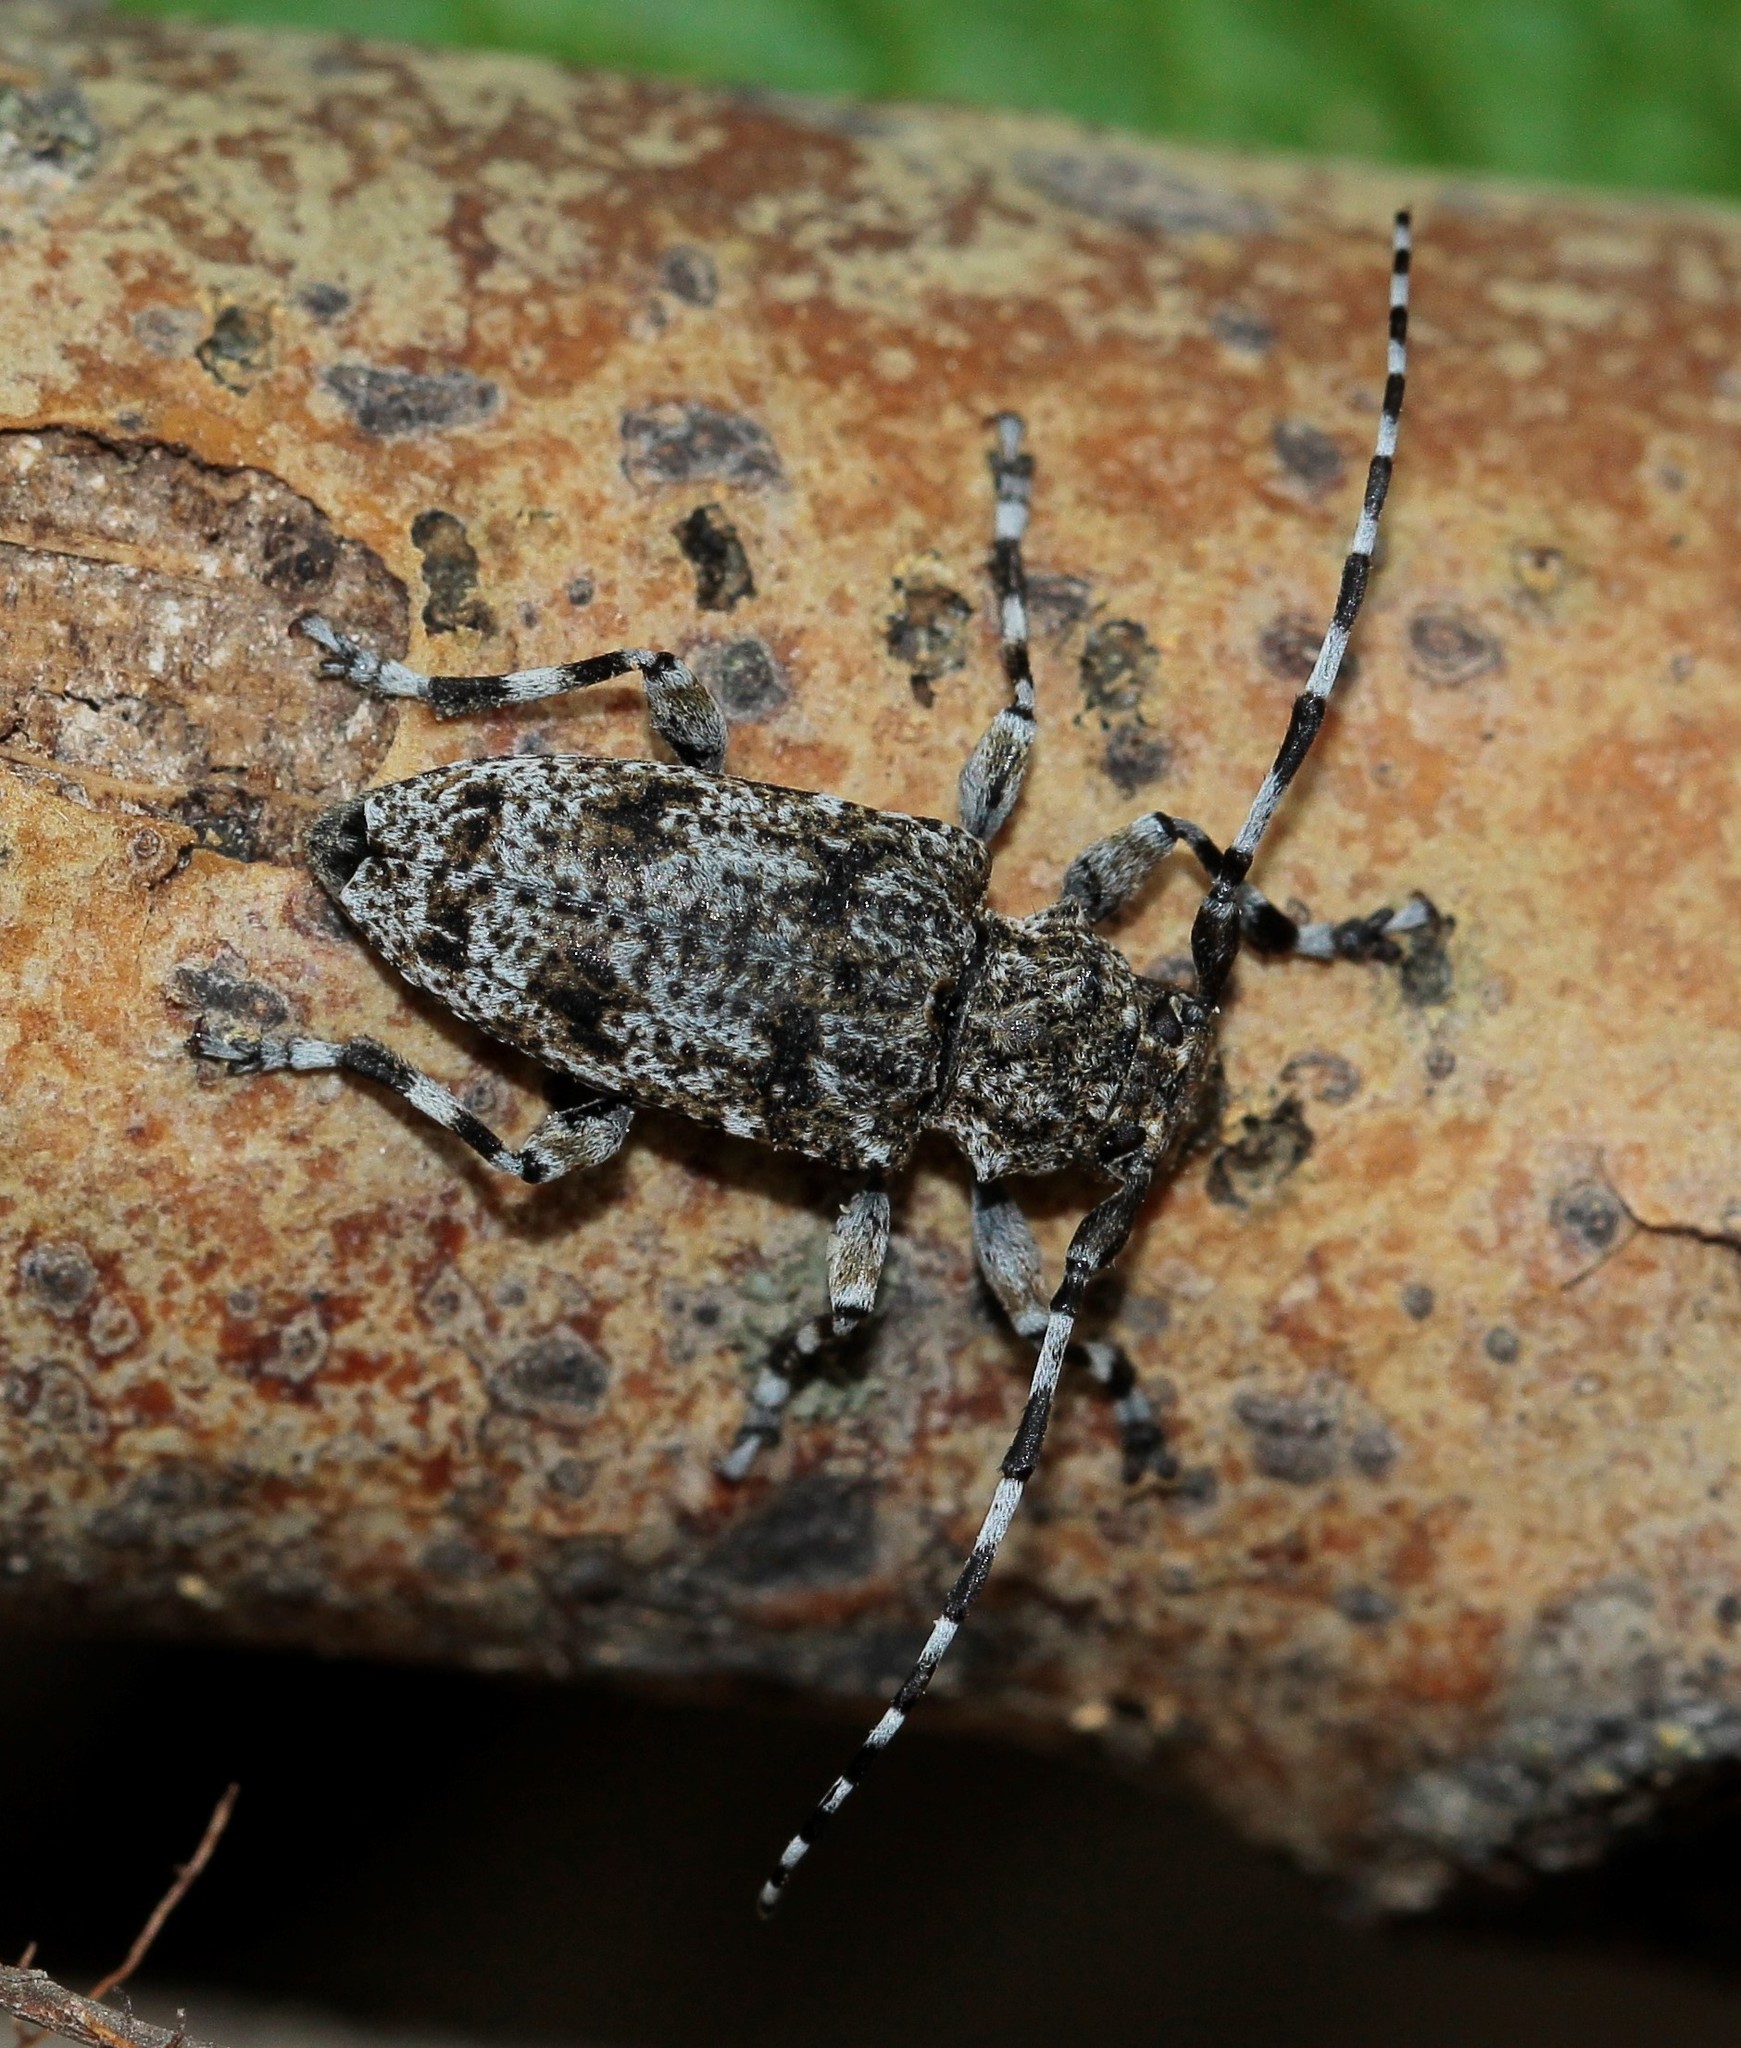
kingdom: Animalia
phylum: Arthropoda
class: Insecta
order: Coleoptera
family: Cerambycidae
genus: Aegomorphus
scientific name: Aegomorphus clavipes
